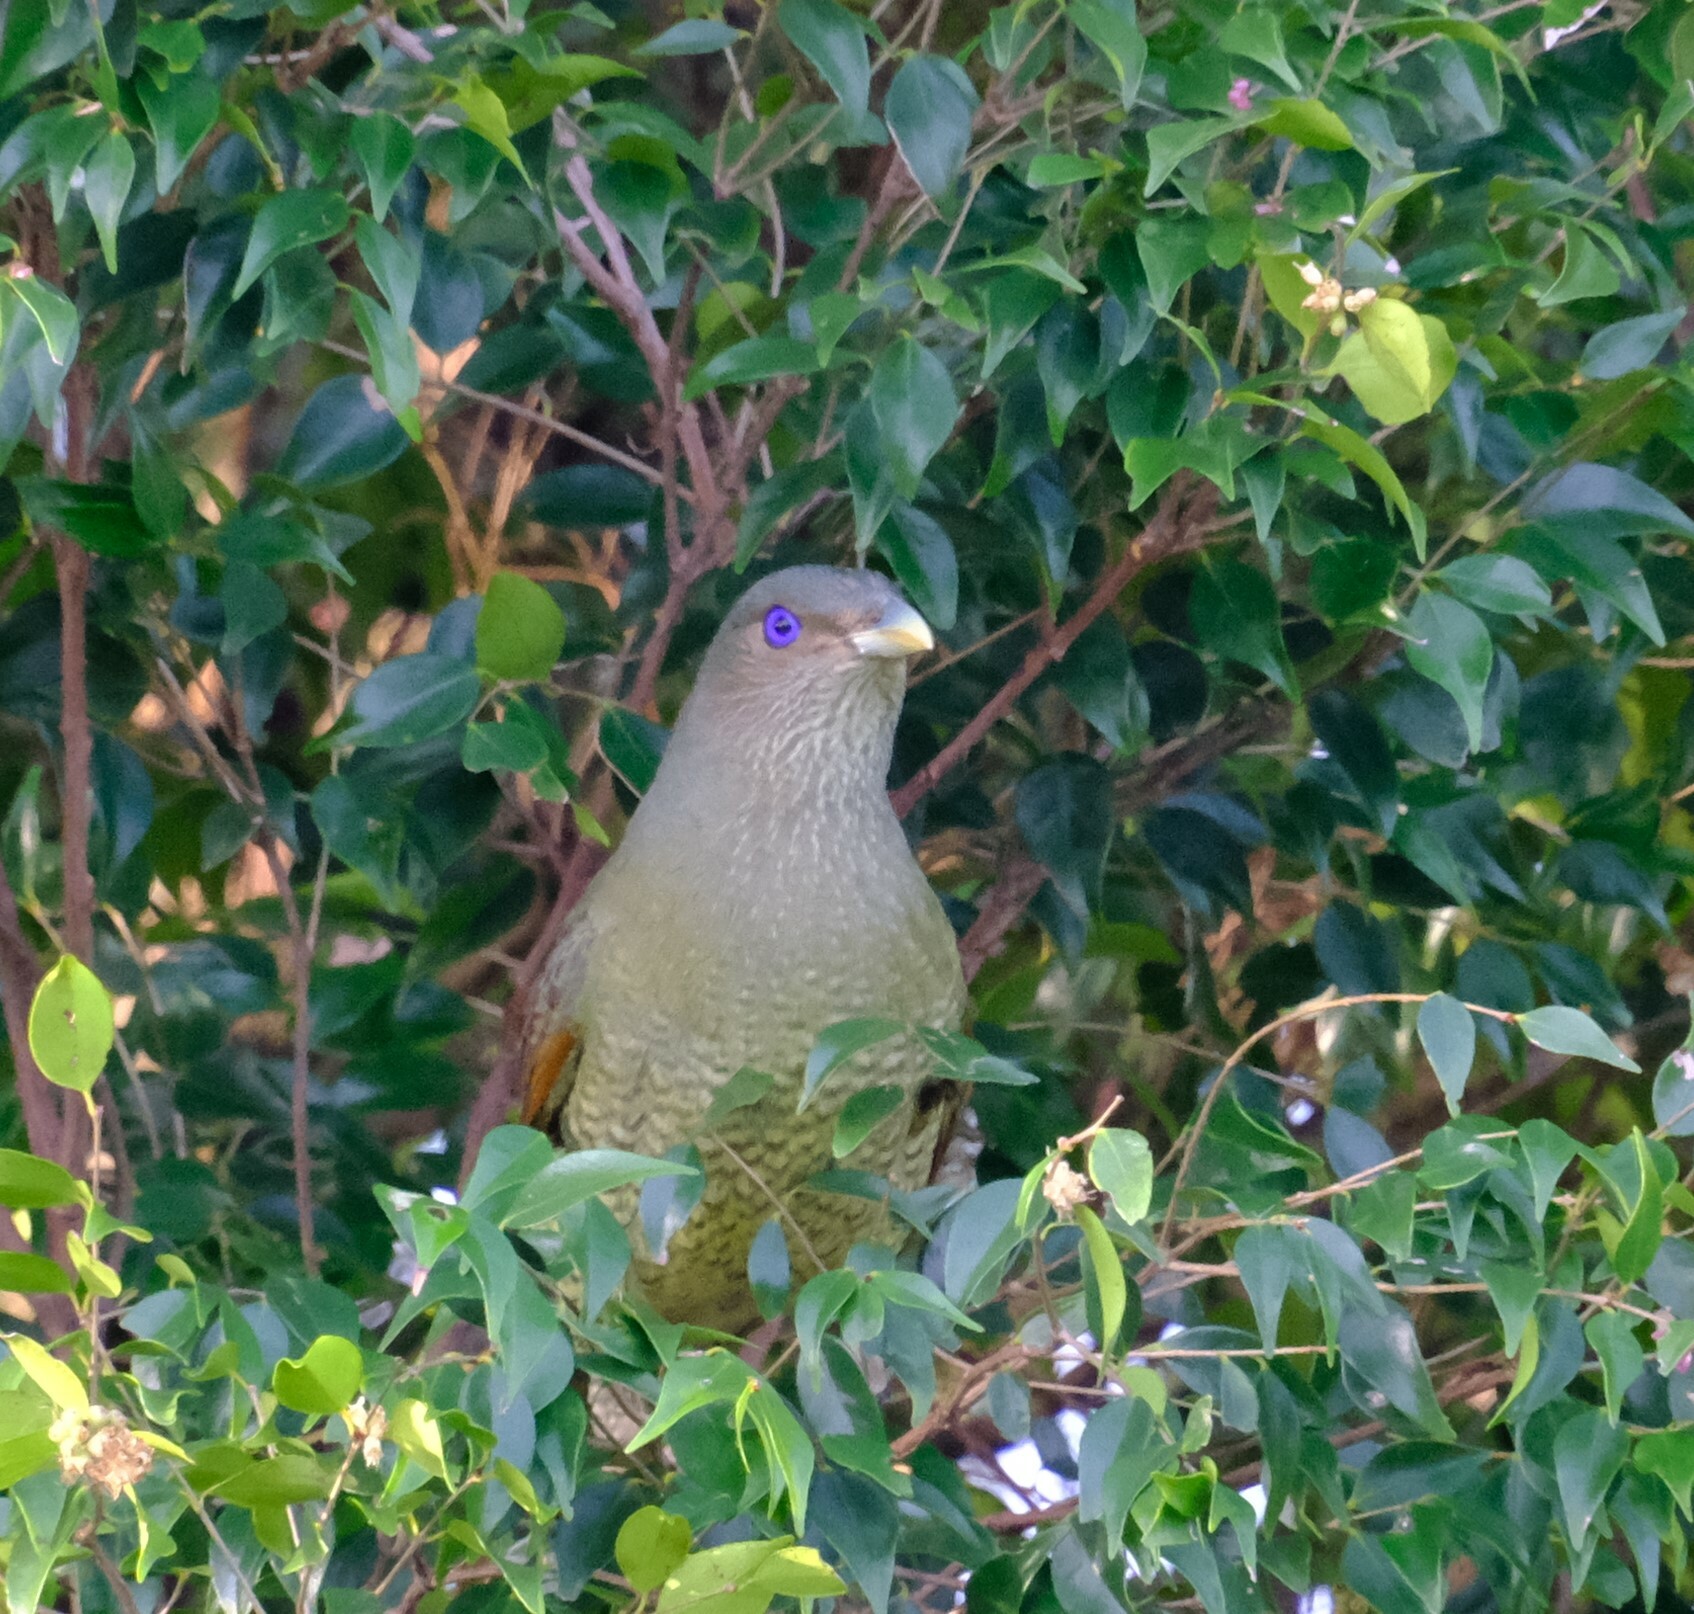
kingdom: Animalia
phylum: Chordata
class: Aves
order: Passeriformes
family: Ptilonorhynchidae
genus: Ptilonorhynchus
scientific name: Ptilonorhynchus violaceus
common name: Satin bowerbird
